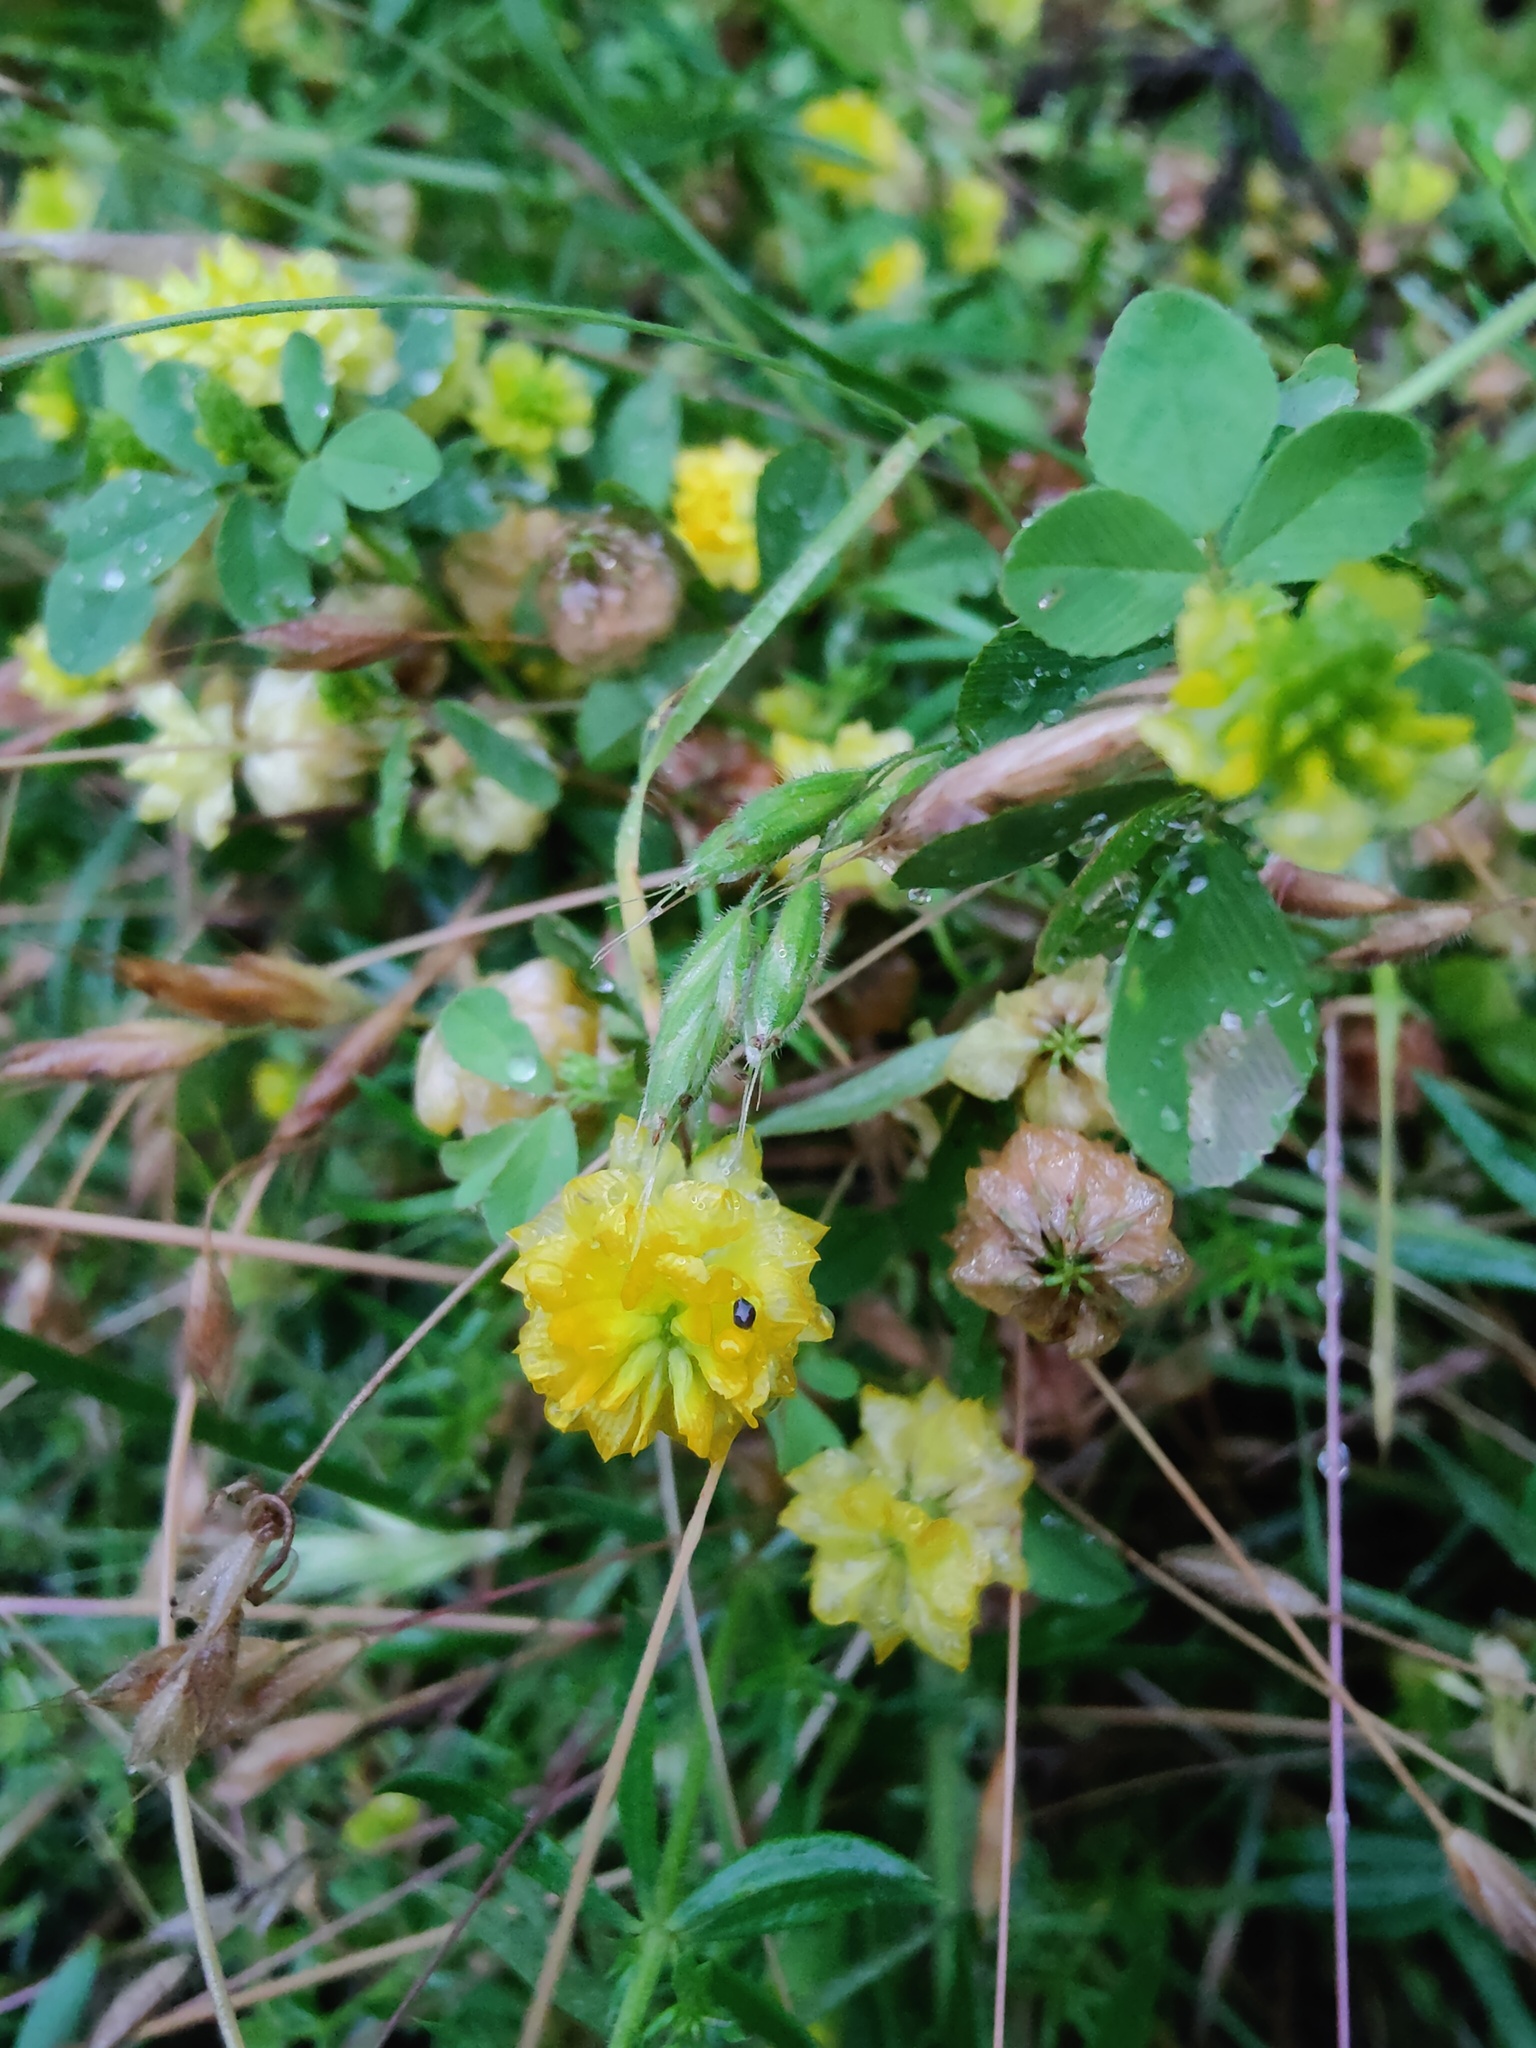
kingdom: Plantae
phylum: Tracheophyta
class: Magnoliopsida
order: Fabales
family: Fabaceae
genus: Trifolium
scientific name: Trifolium campestre
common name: Field clover
